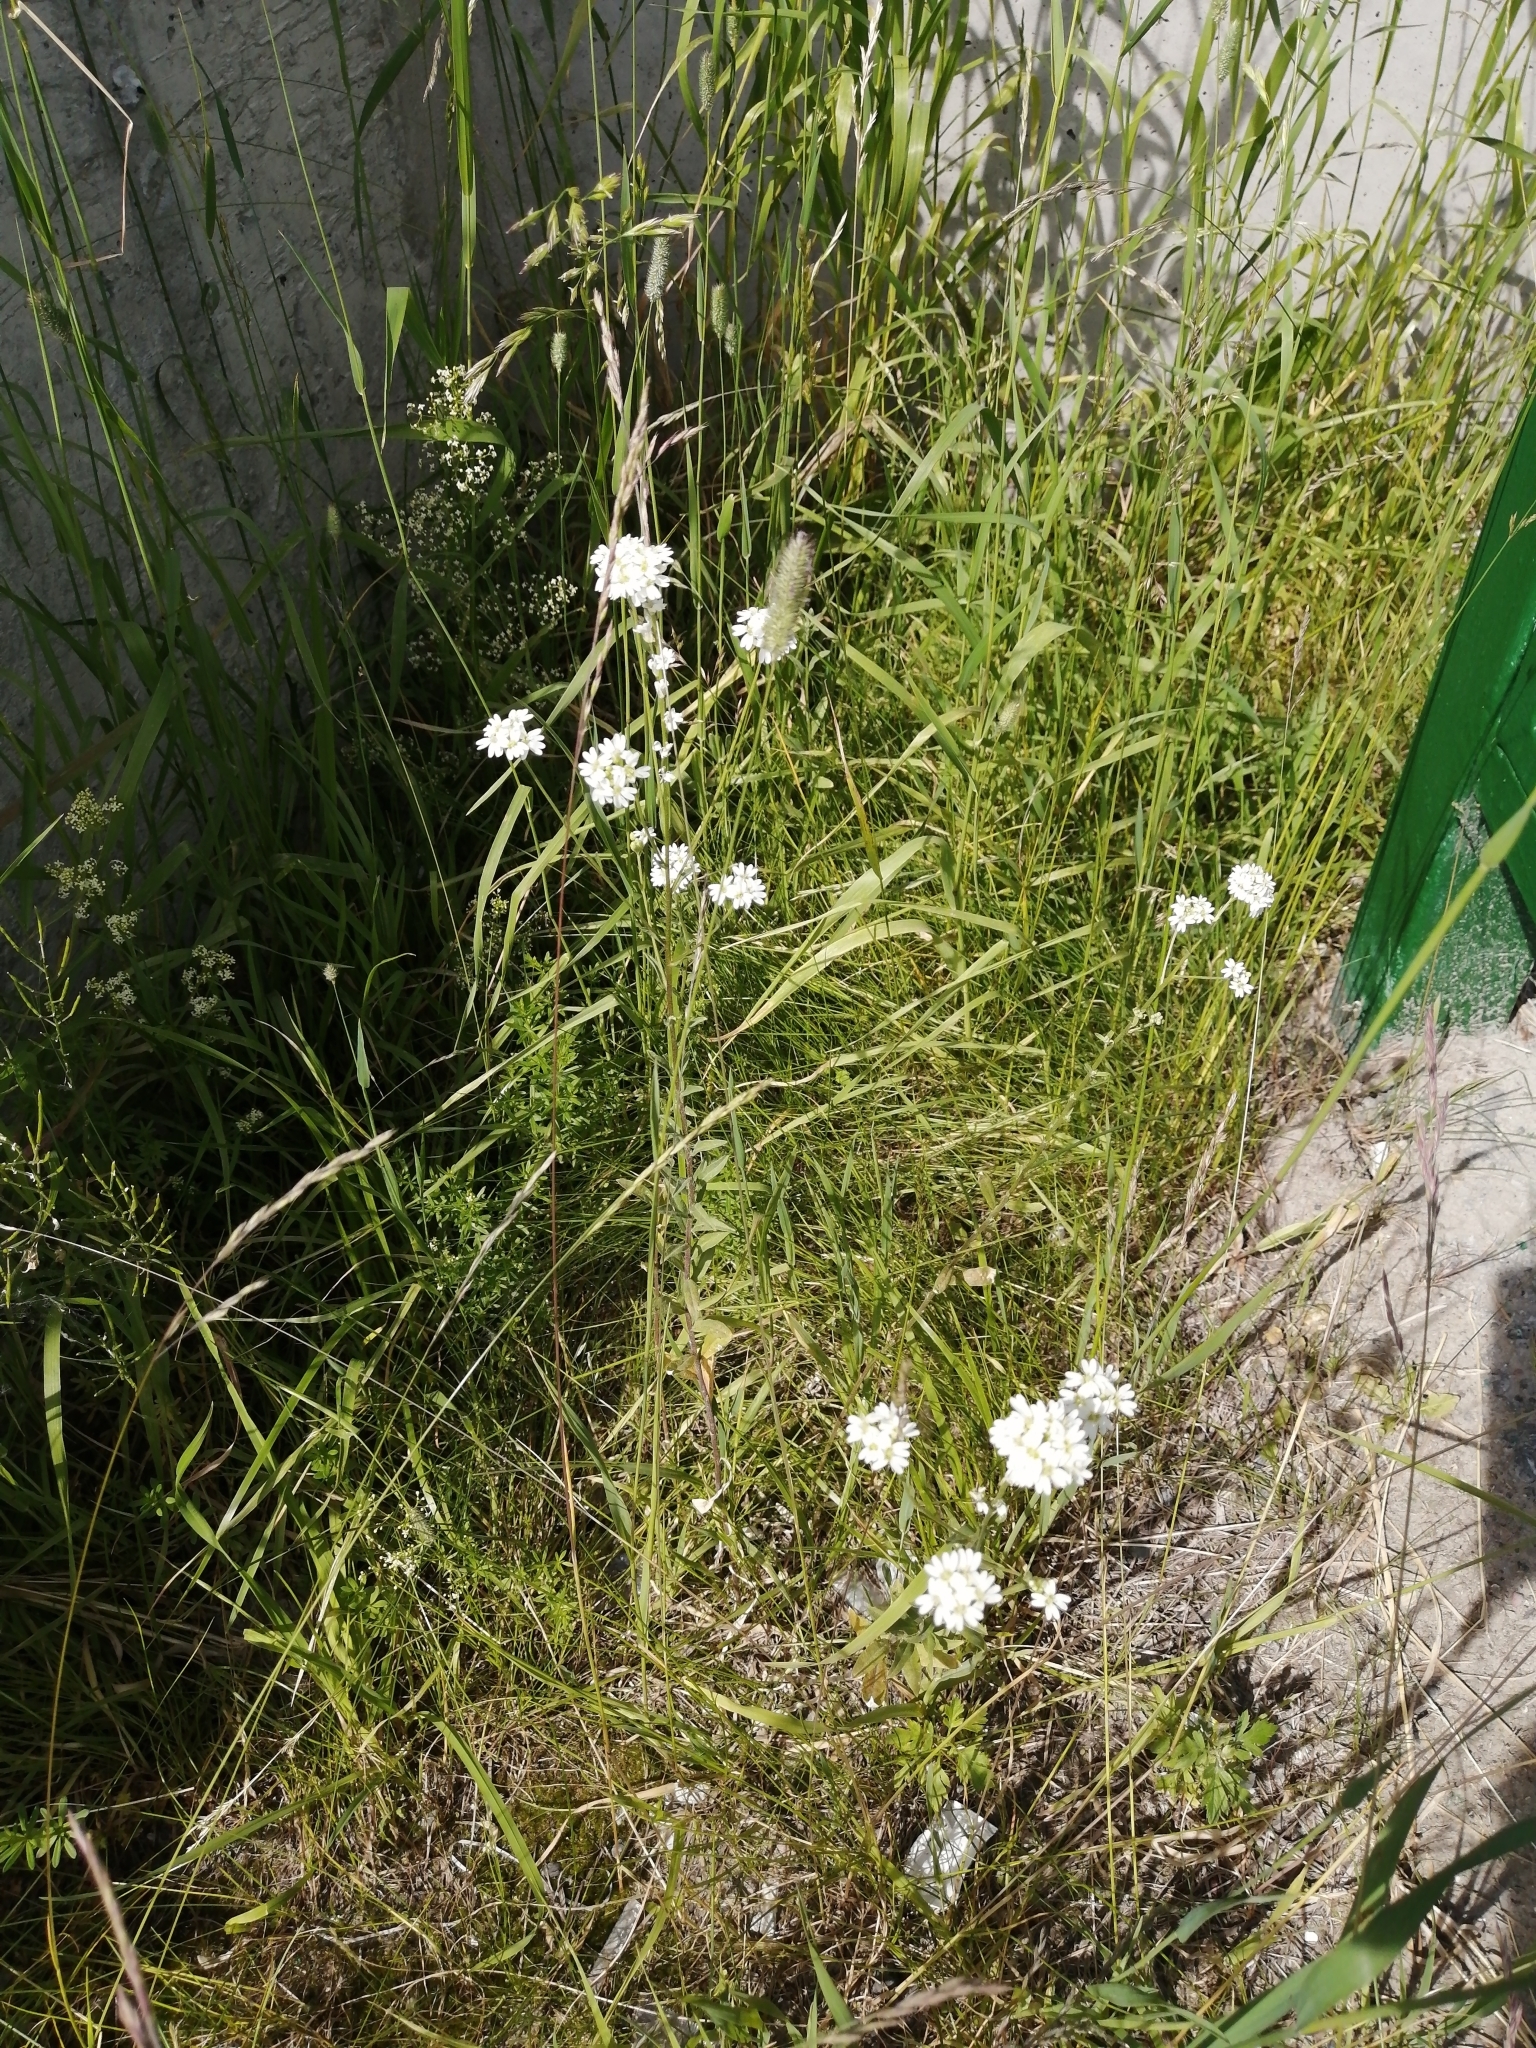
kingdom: Plantae
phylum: Tracheophyta
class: Magnoliopsida
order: Brassicales
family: Brassicaceae
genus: Berteroa
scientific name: Berteroa incana
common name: Hoary alison
